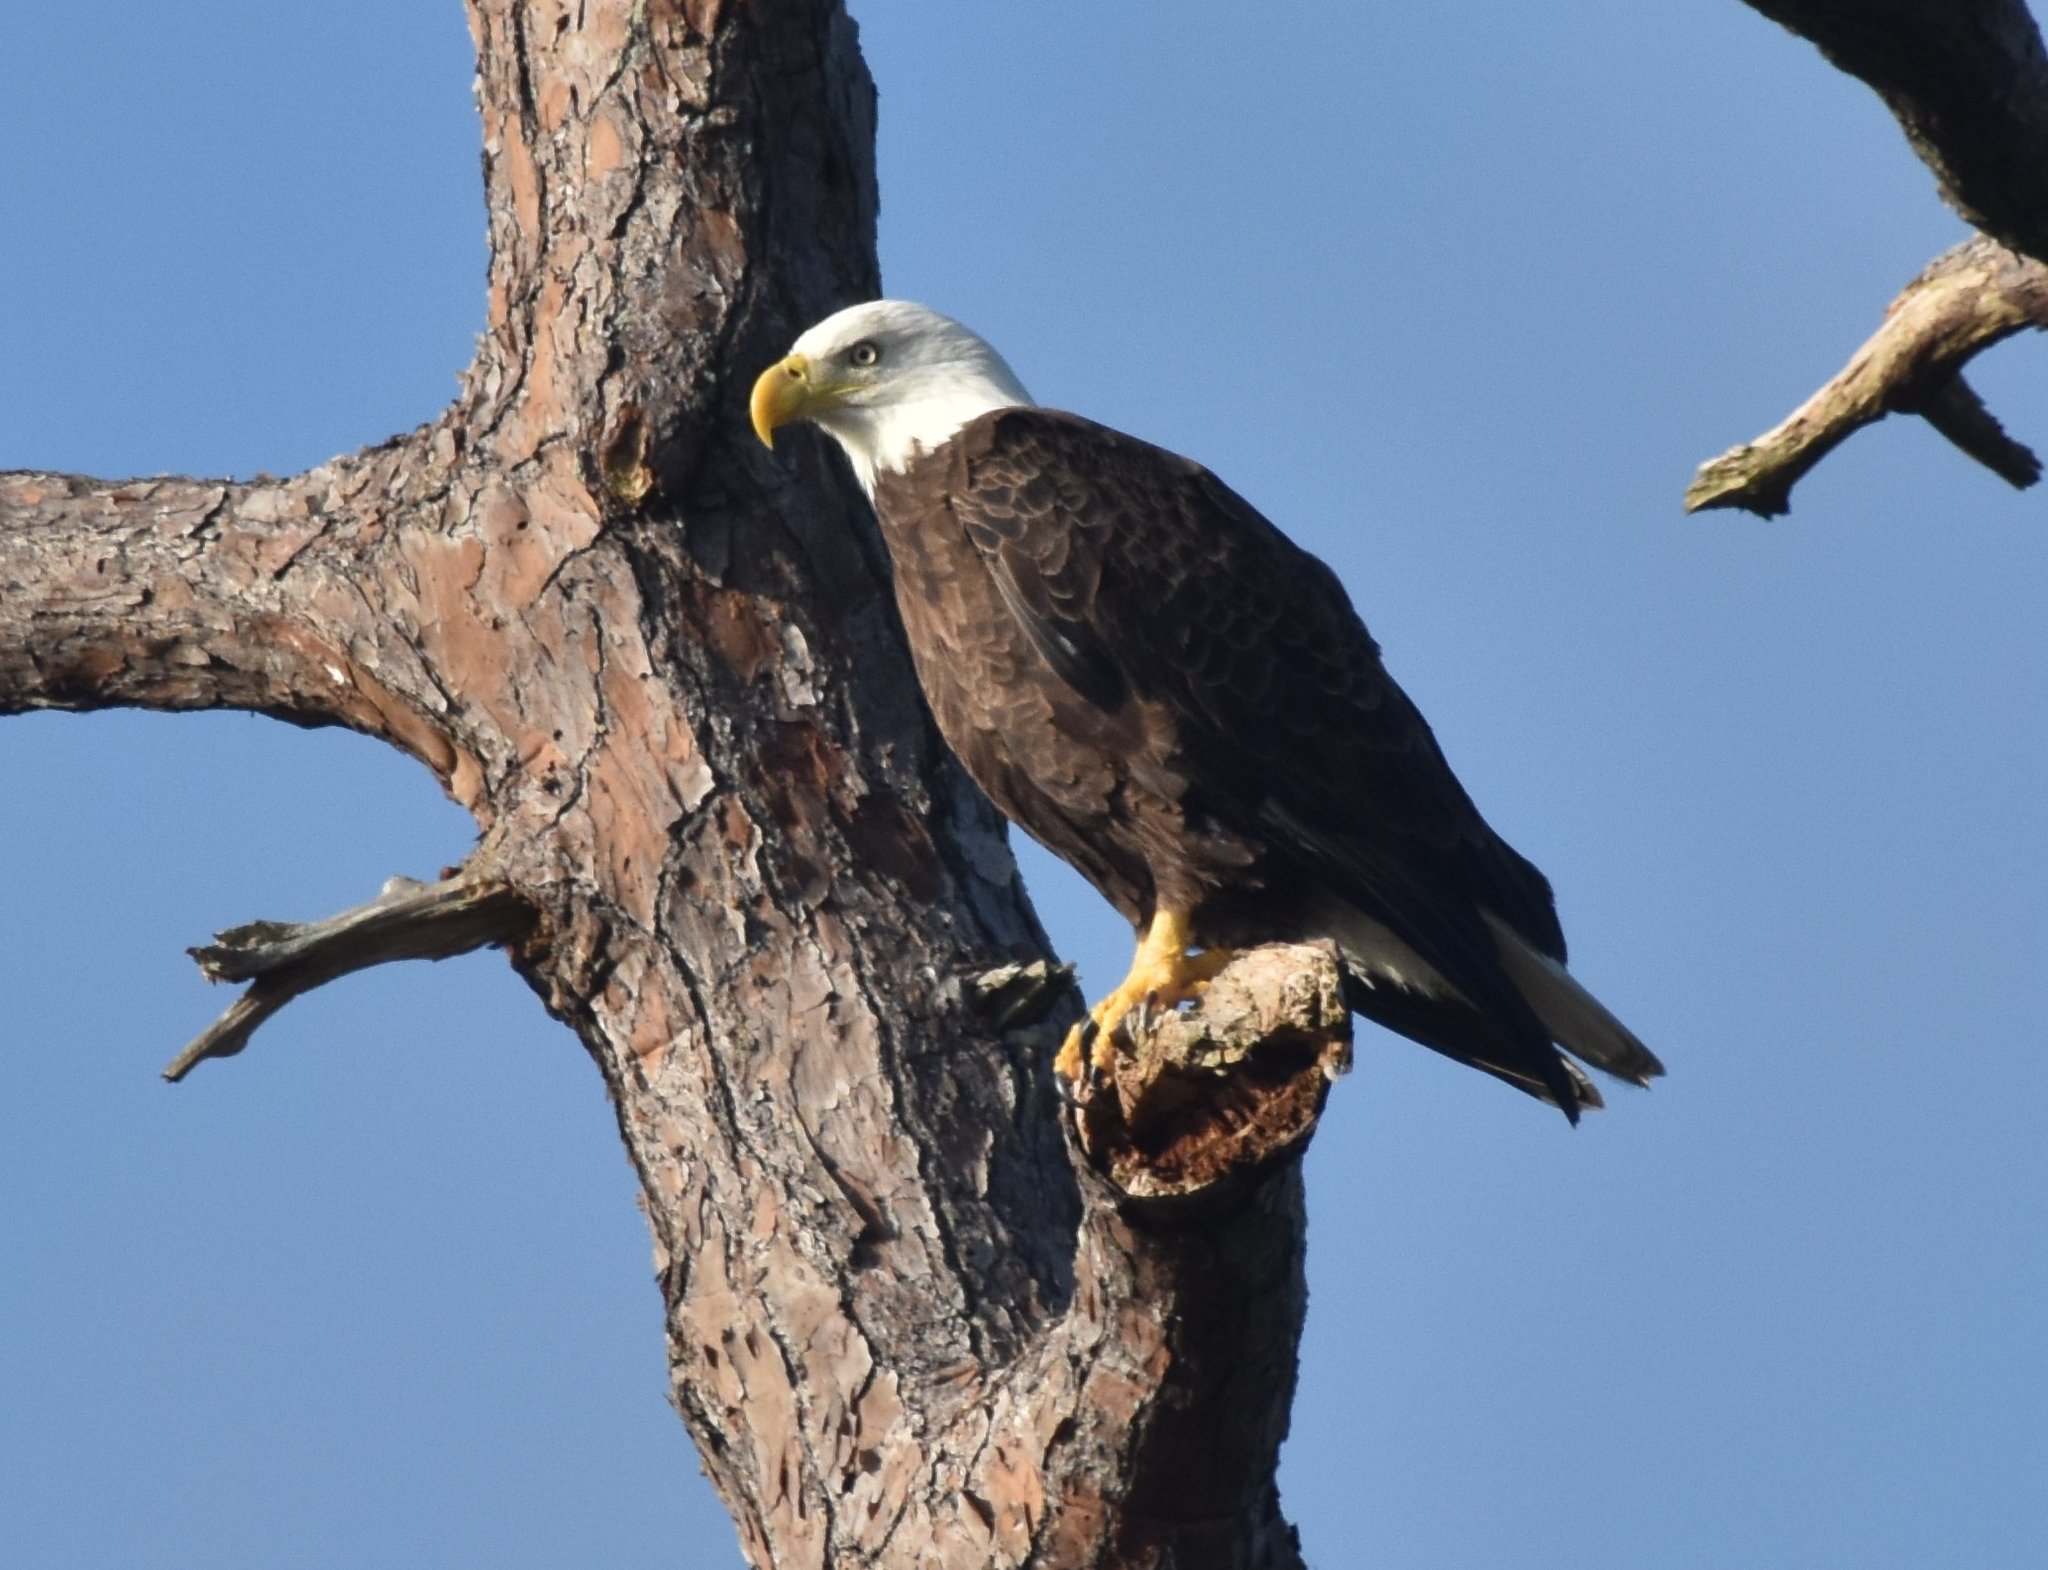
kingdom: Animalia
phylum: Chordata
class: Aves
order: Accipitriformes
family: Accipitridae
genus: Haliaeetus
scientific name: Haliaeetus leucocephalus
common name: Bald eagle
